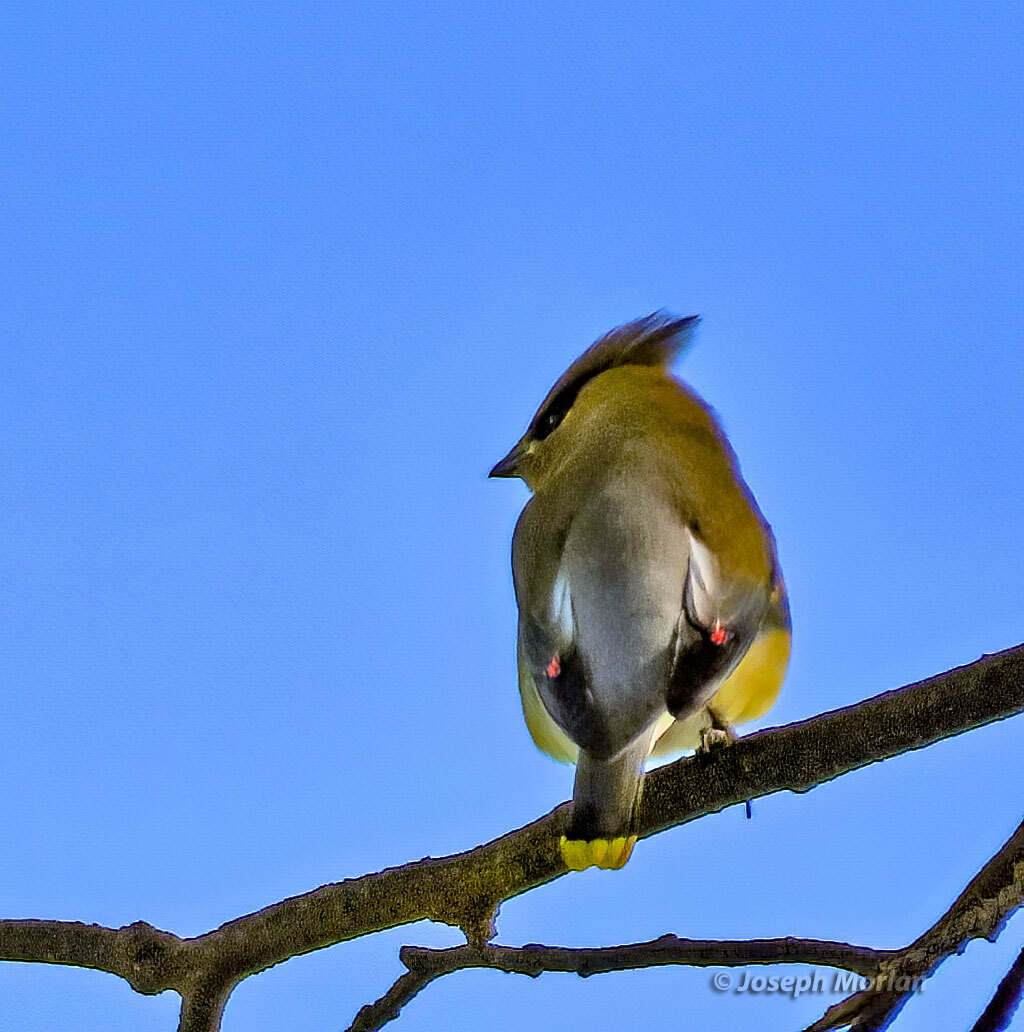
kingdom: Animalia
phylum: Chordata
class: Aves
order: Passeriformes
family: Bombycillidae
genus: Bombycilla
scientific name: Bombycilla cedrorum
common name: Cedar waxwing
